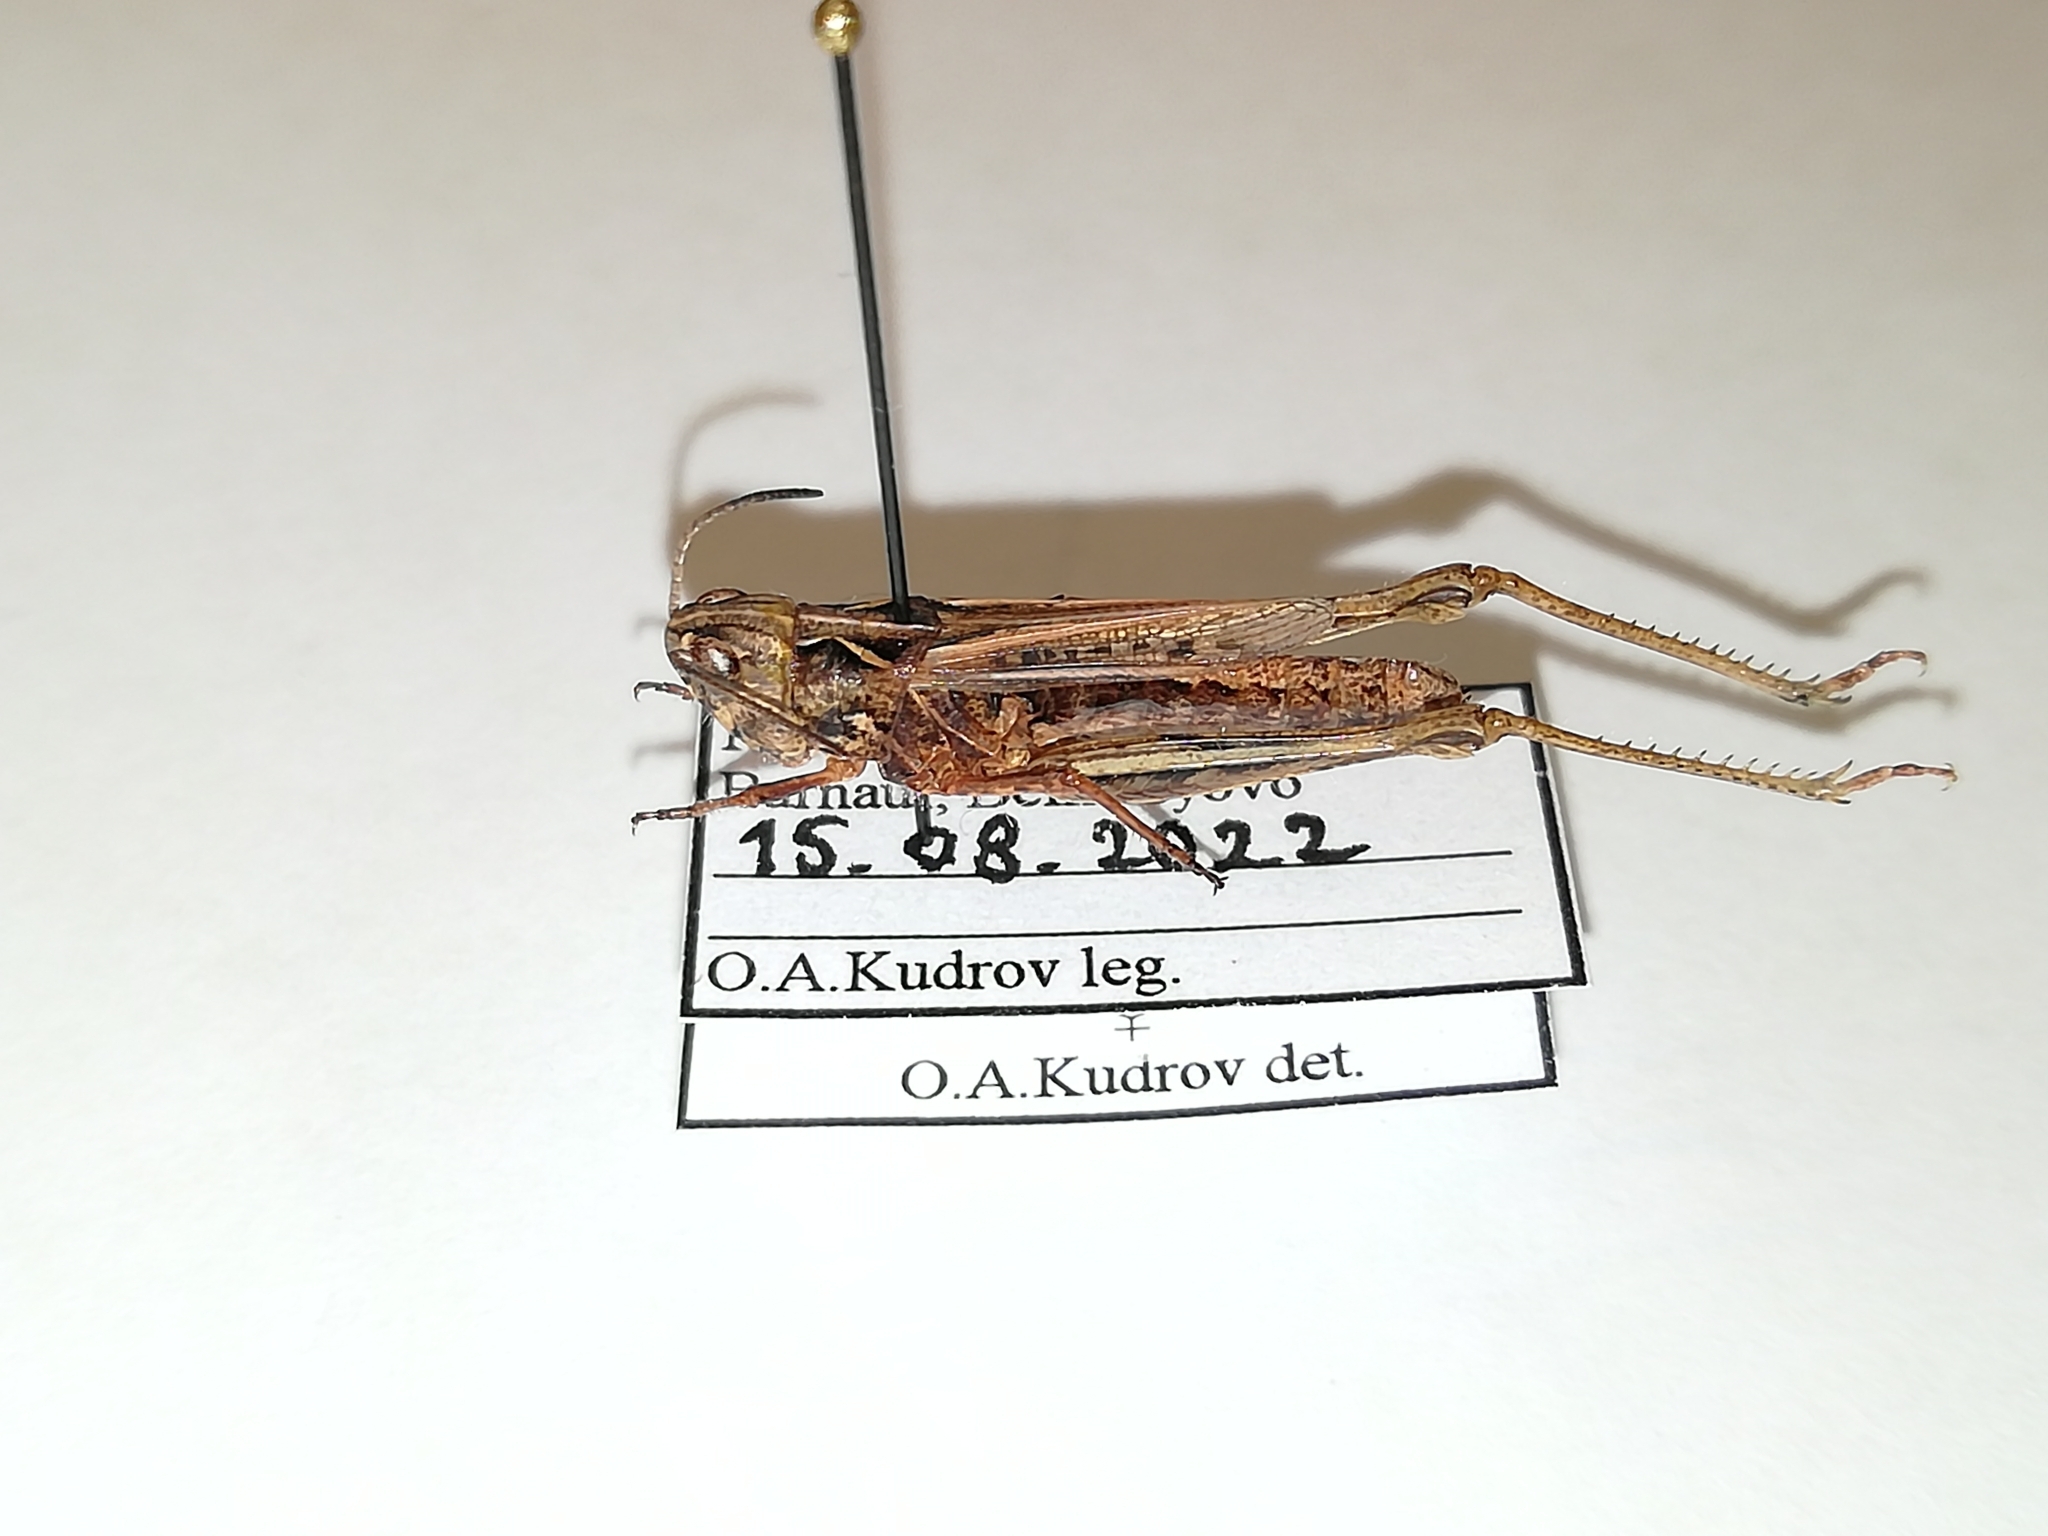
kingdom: Animalia
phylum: Arthropoda
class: Insecta
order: Orthoptera
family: Acrididae
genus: Chorthippus
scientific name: Chorthippus dubius
